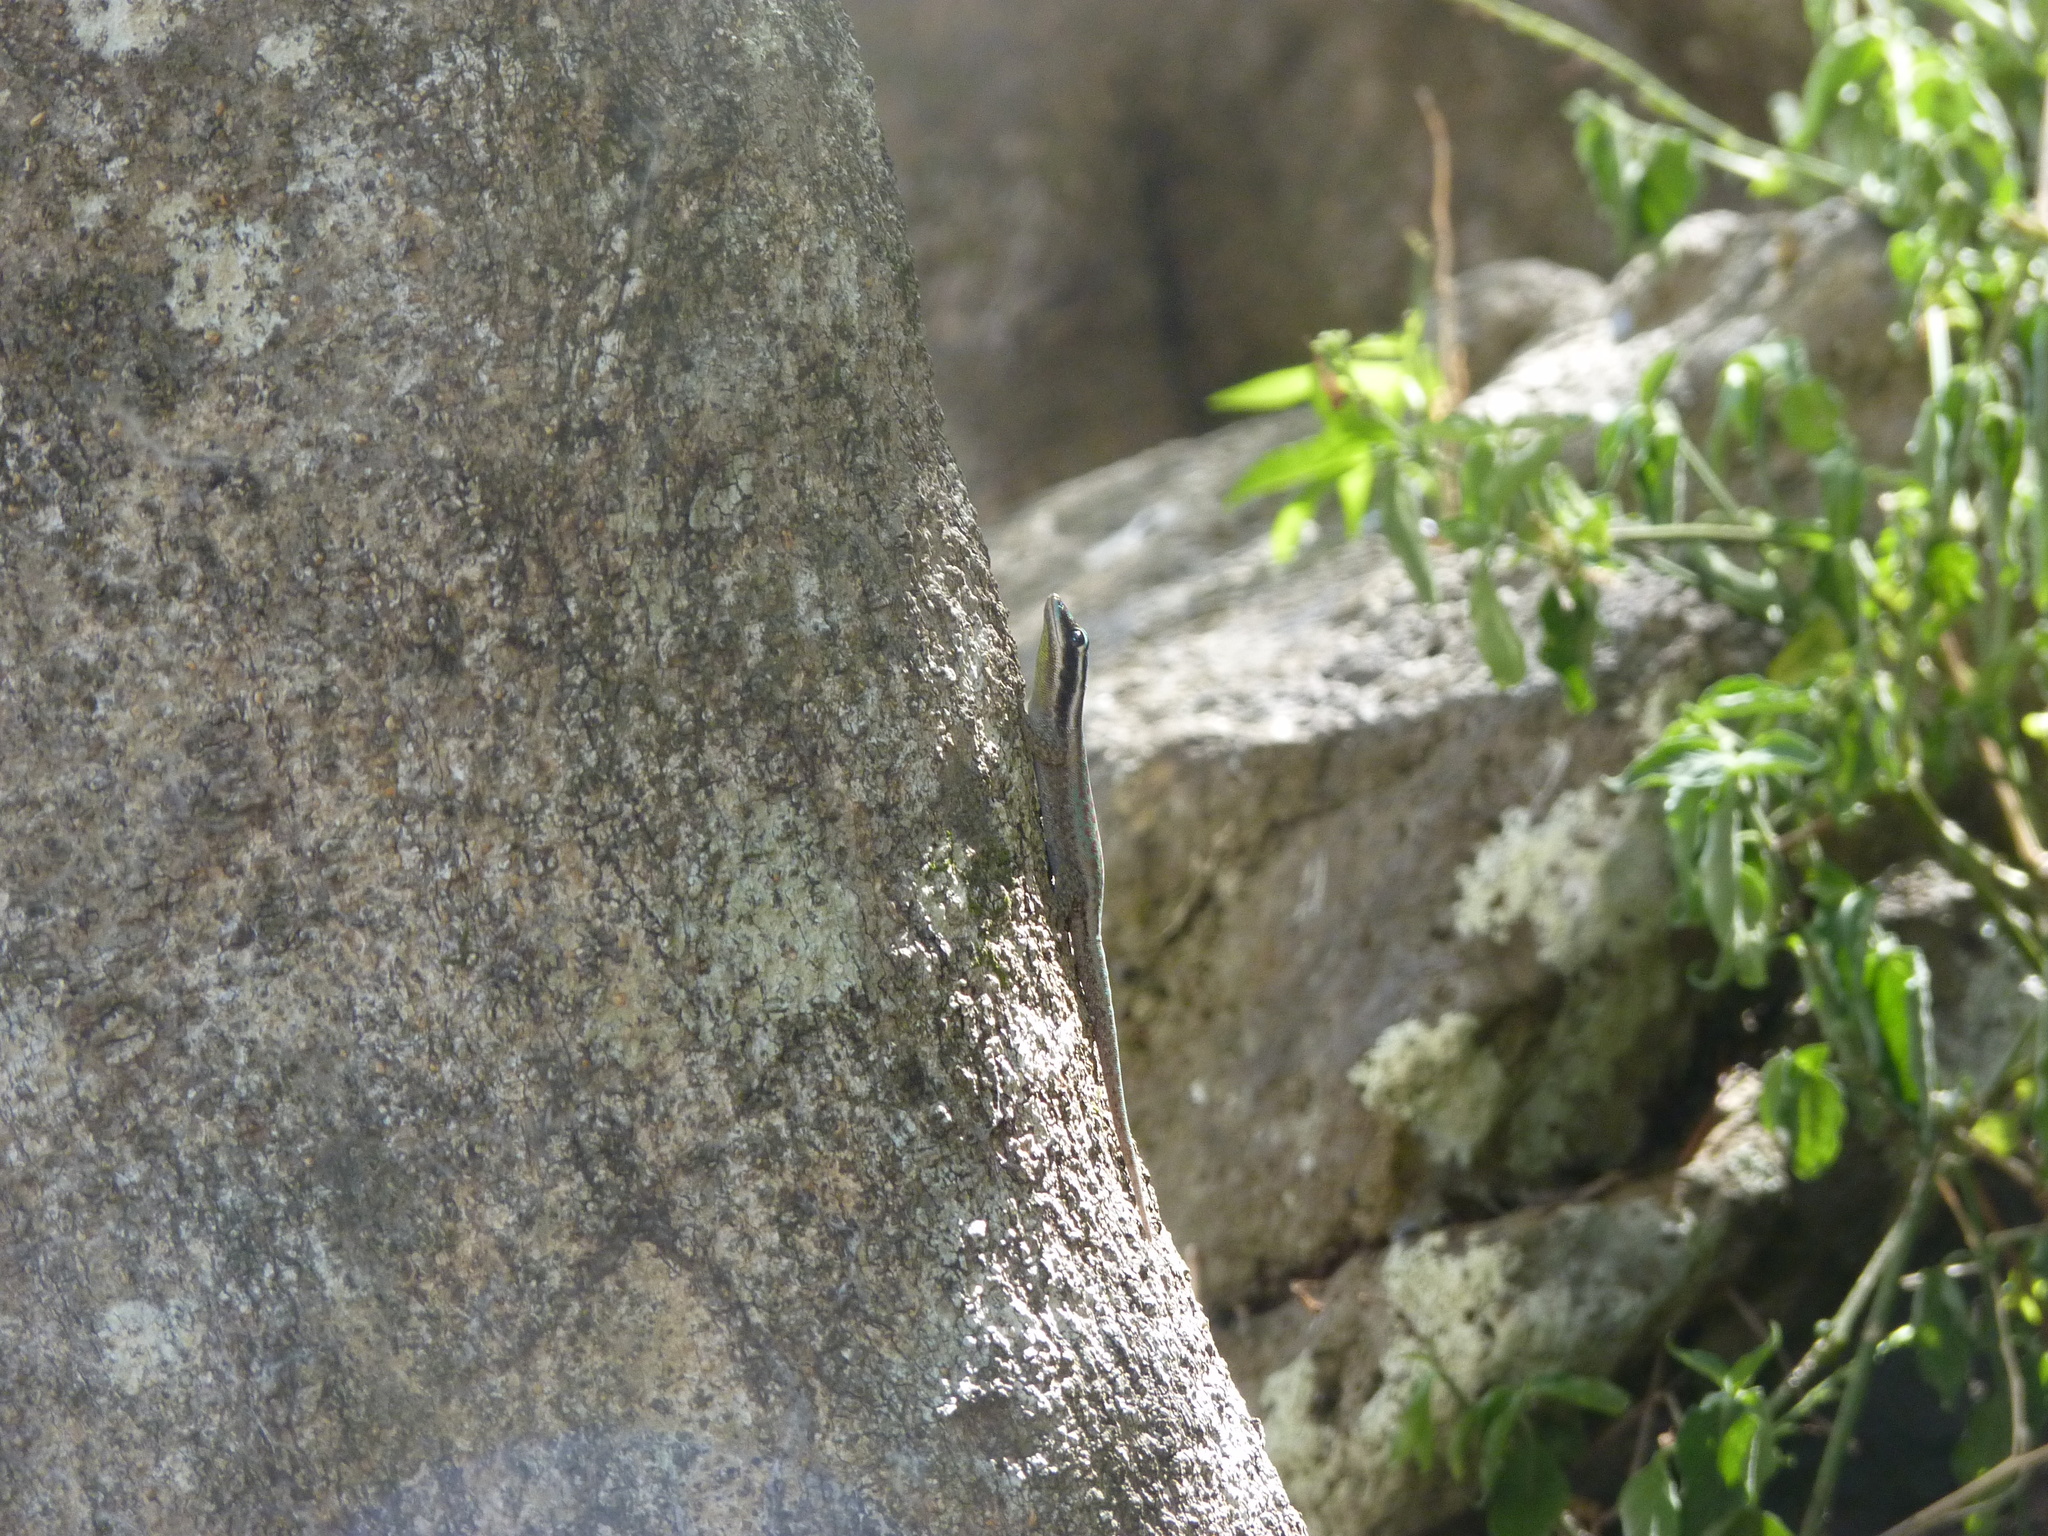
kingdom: Animalia
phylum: Chordata
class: Squamata
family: Gekkonidae
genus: Phelsuma
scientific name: Phelsuma ornata
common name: Ornate day gecko
